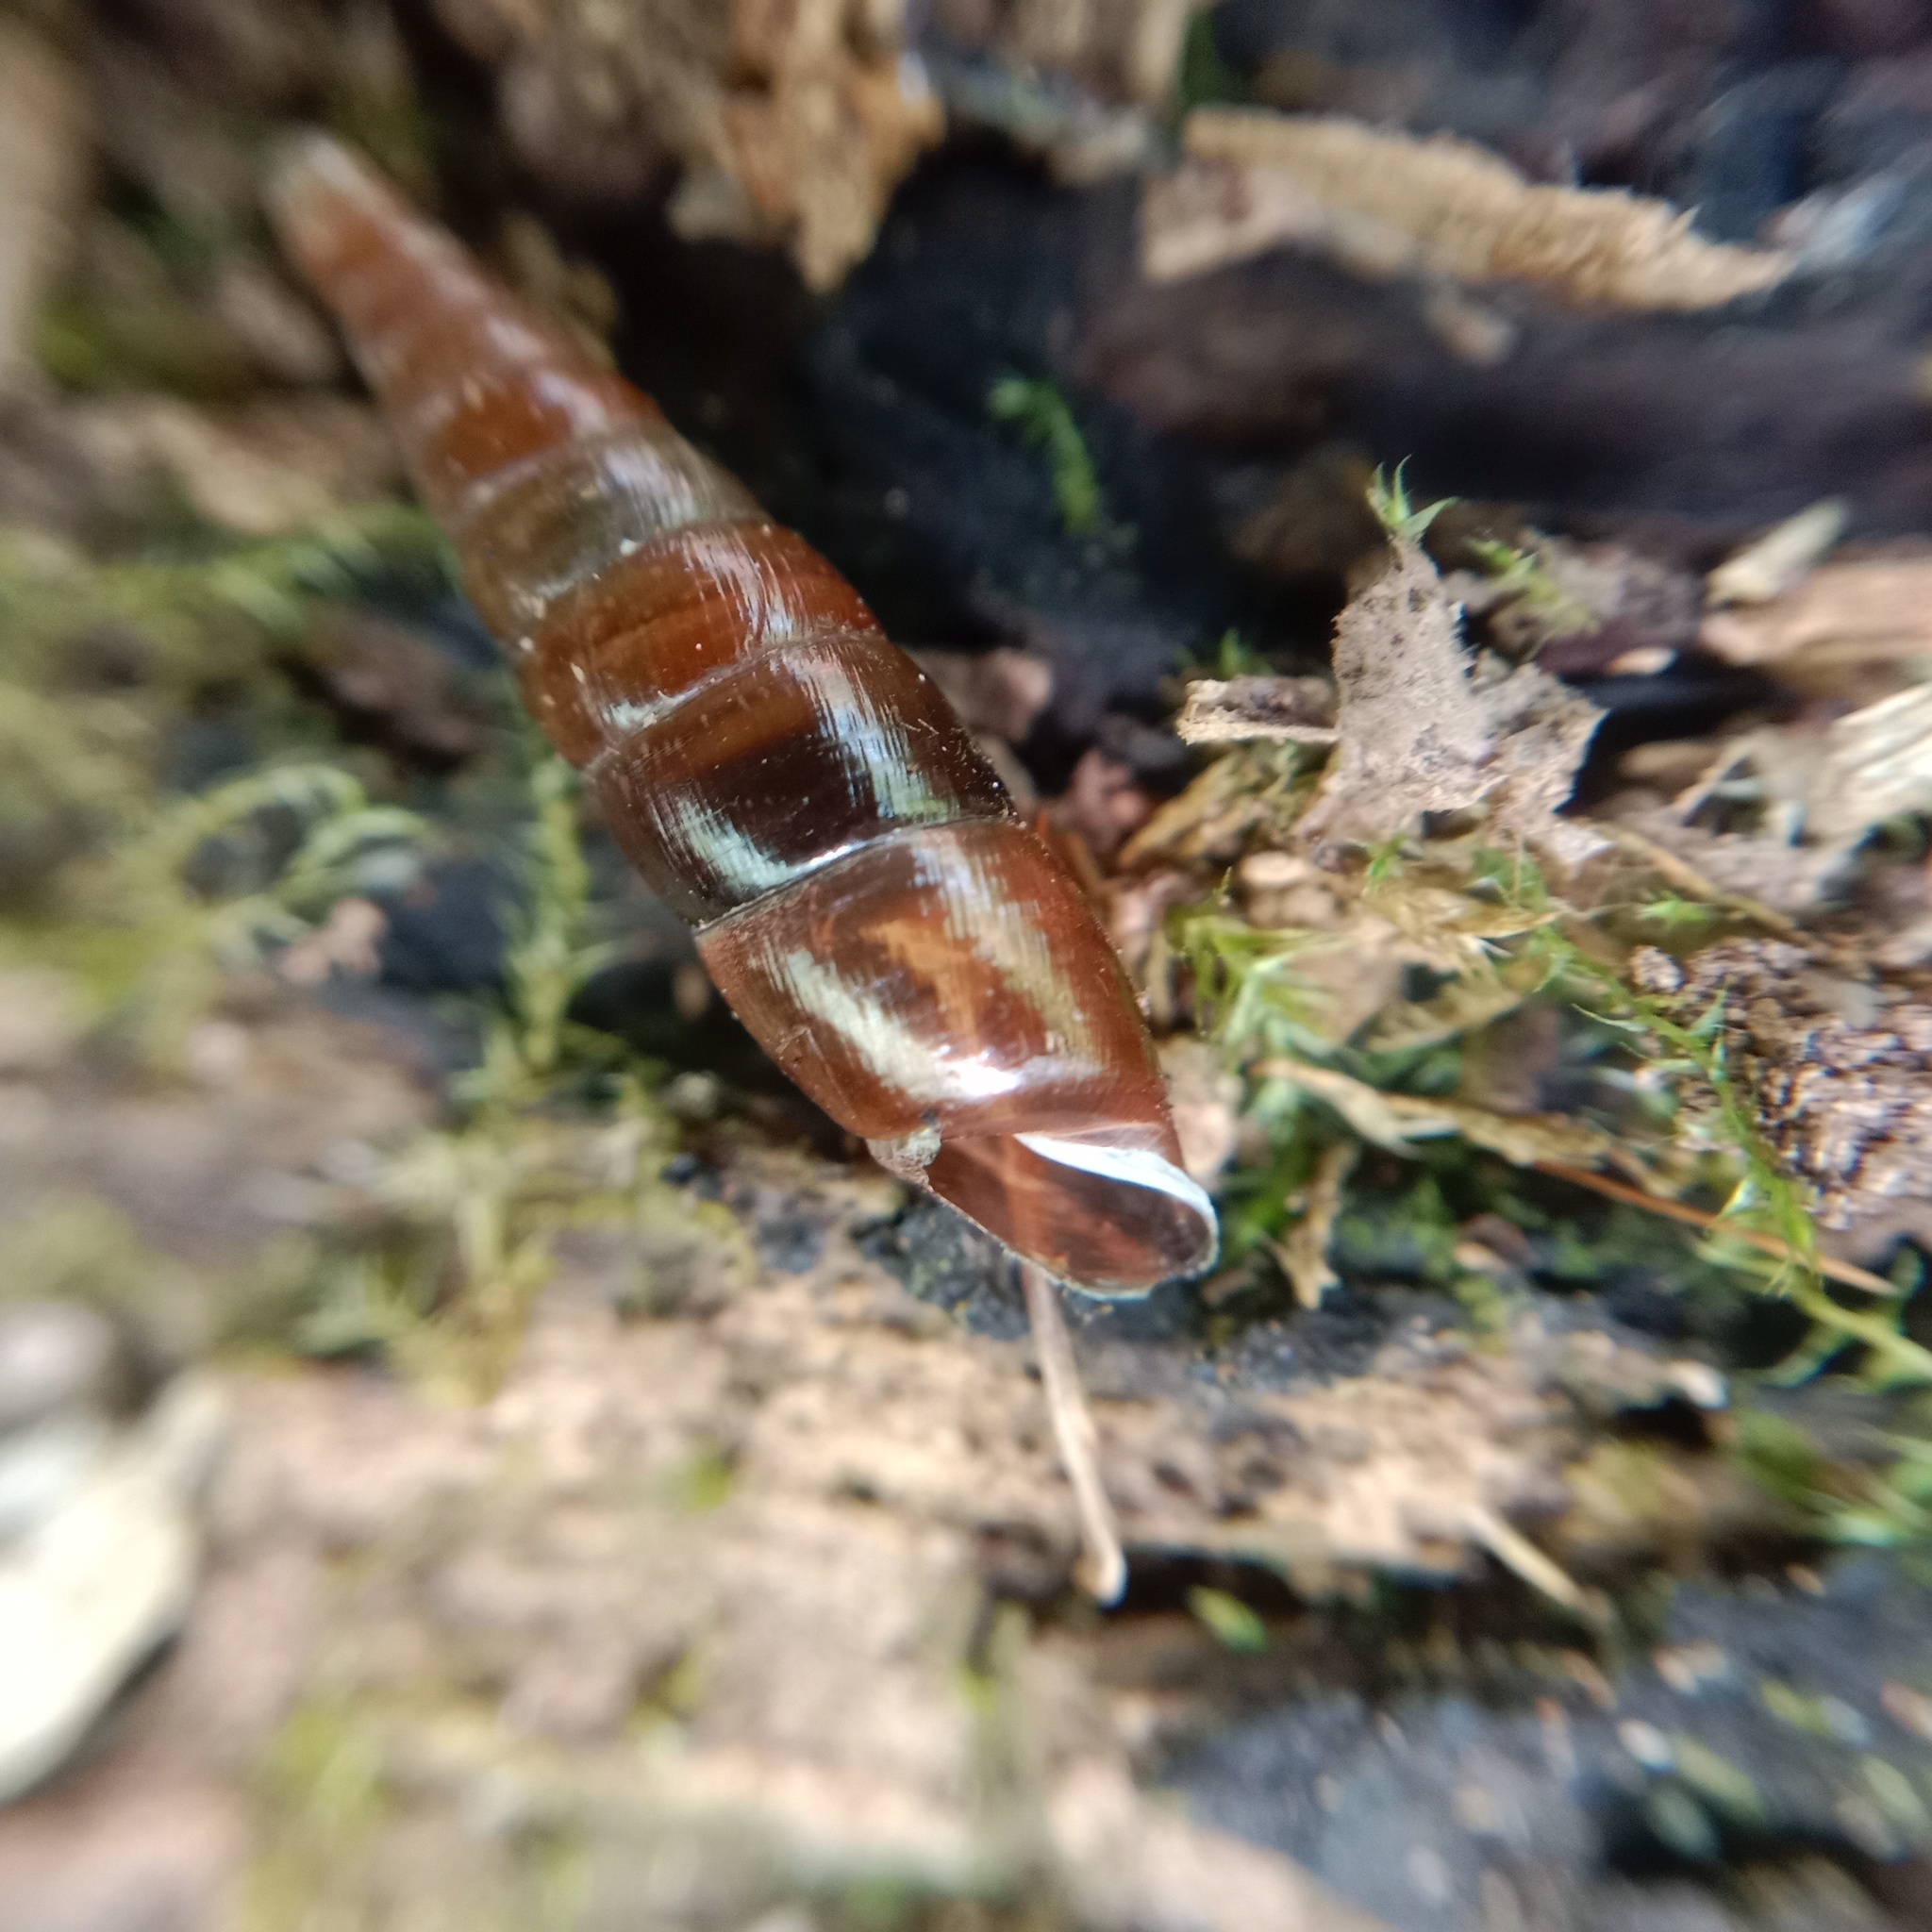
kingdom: Animalia
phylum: Mollusca
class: Gastropoda
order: Stylommatophora
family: Clausiliidae
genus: Cochlodina
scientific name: Cochlodina laminata
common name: Plaited door snail
